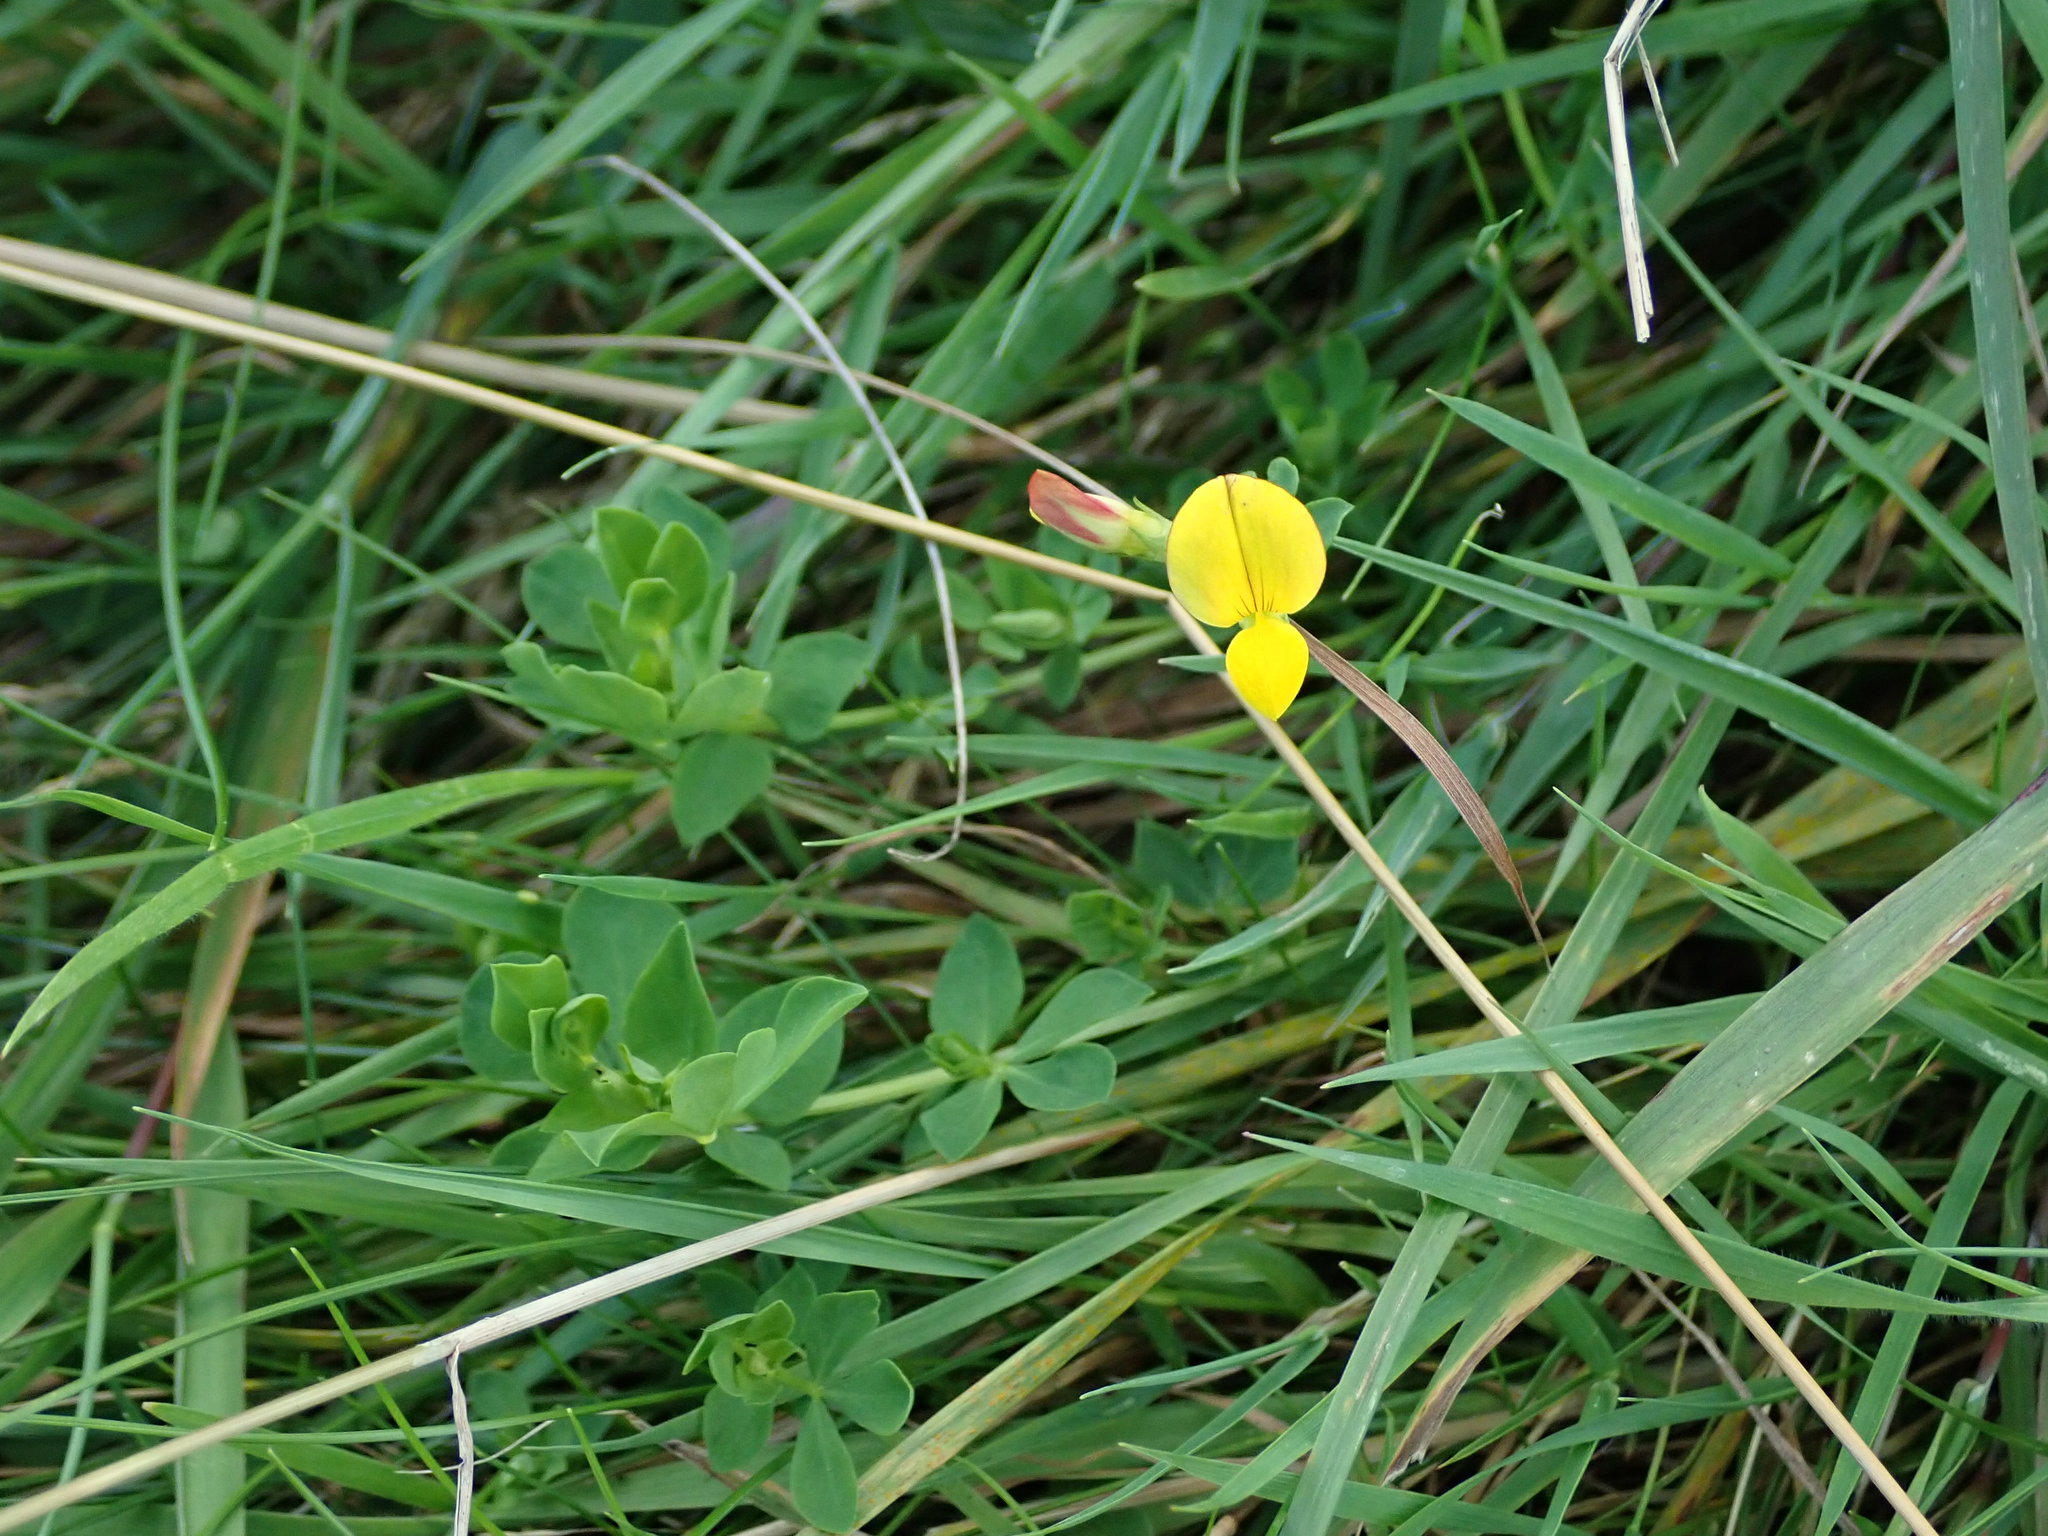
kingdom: Plantae
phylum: Tracheophyta
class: Magnoliopsida
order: Fabales
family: Fabaceae
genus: Lotus
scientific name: Lotus corniculatus
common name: Common bird's-foot-trefoil
